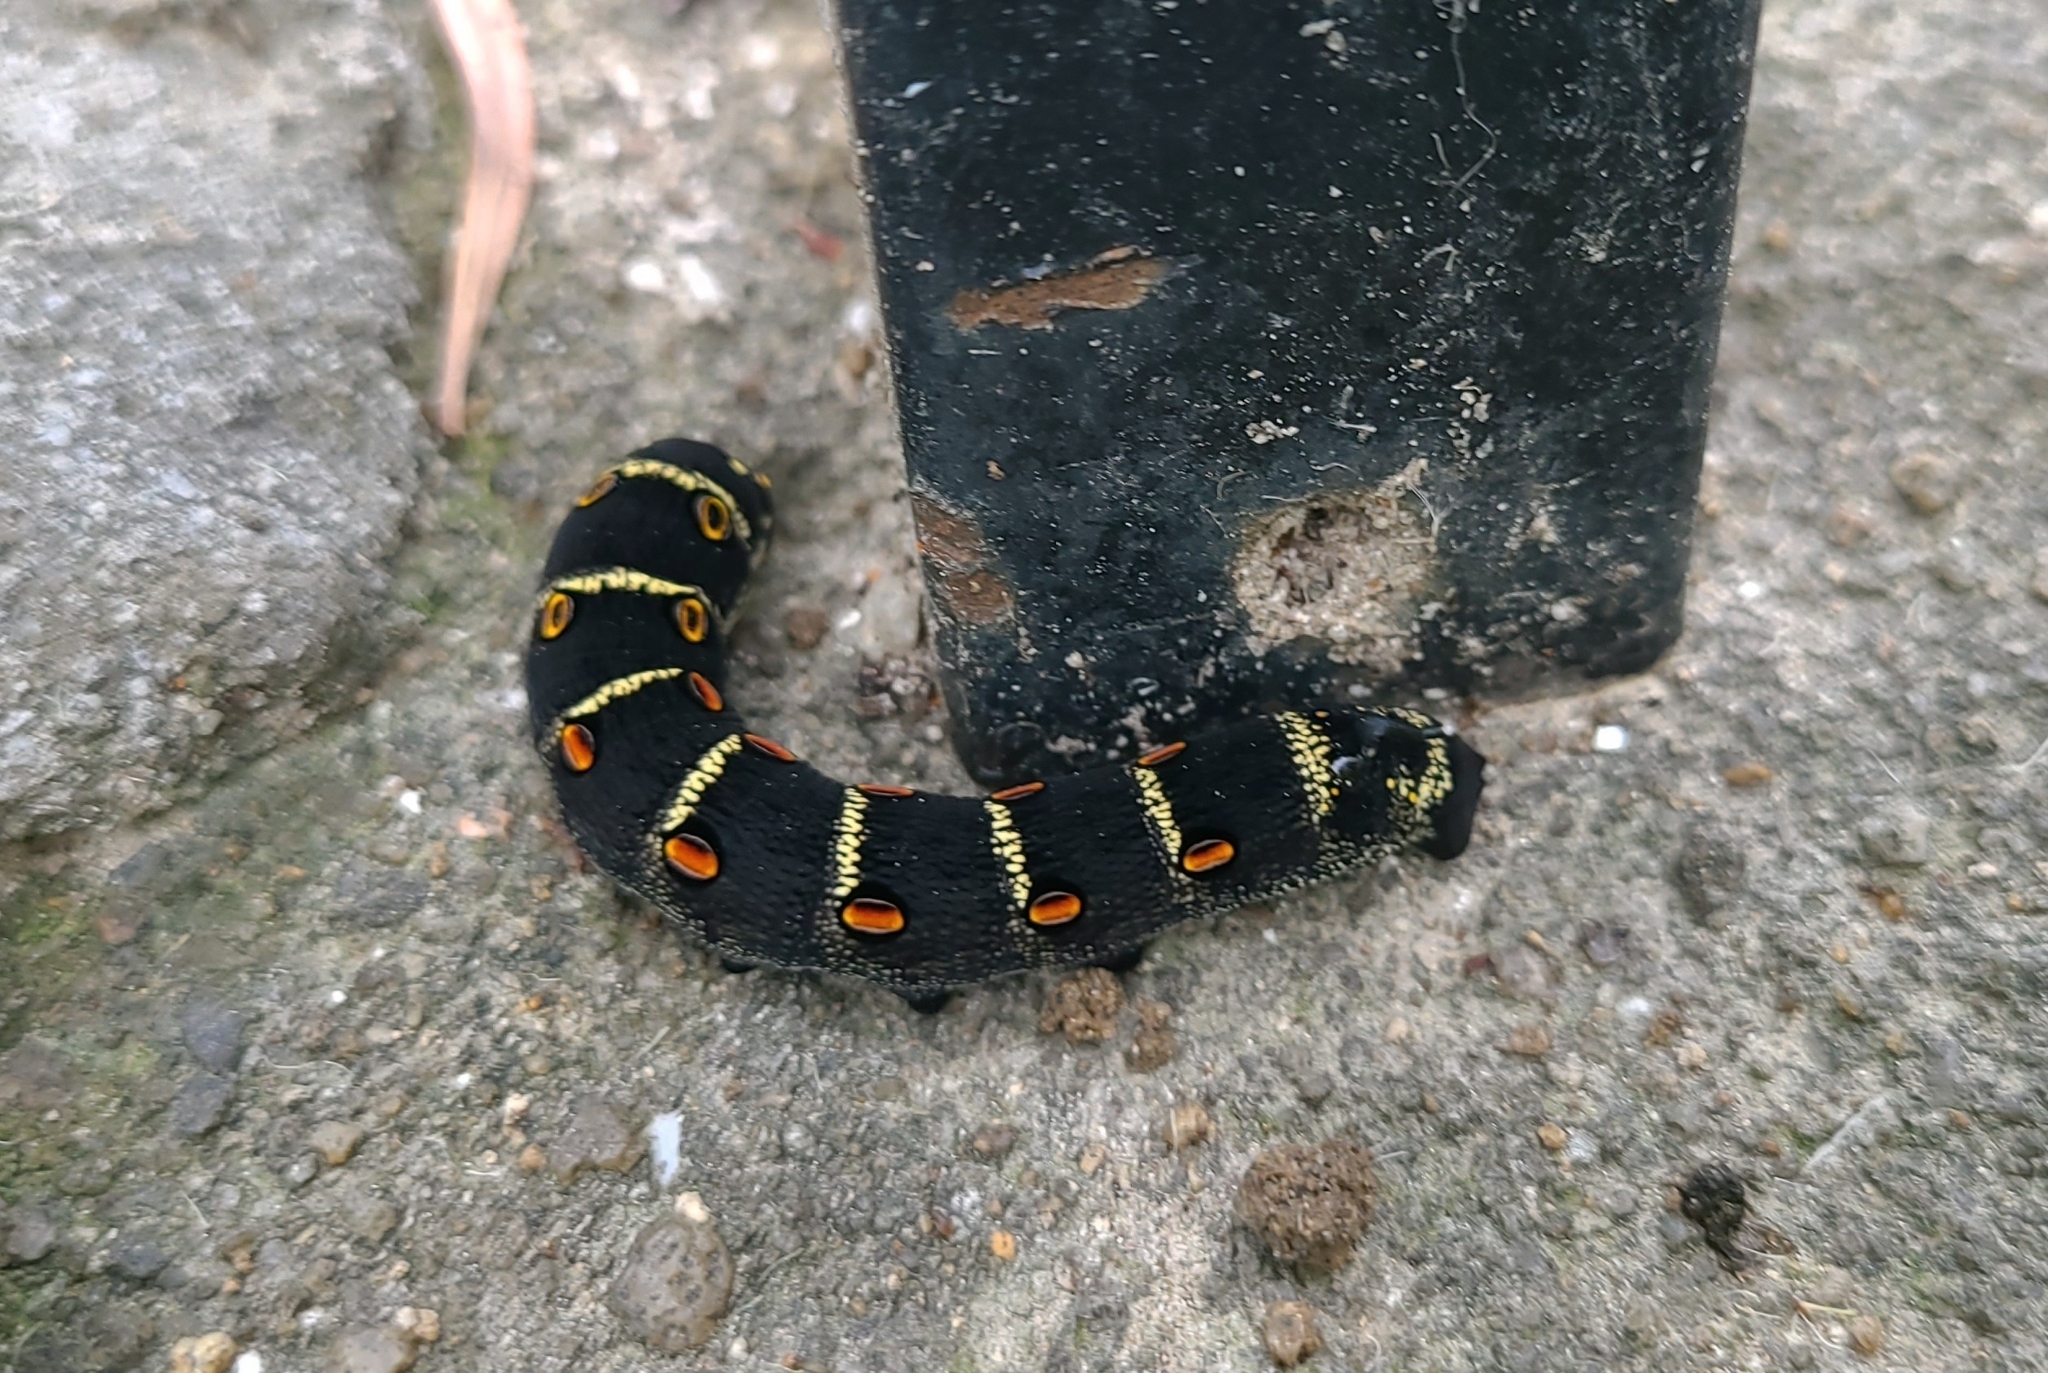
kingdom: Animalia
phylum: Arthropoda
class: Insecta
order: Lepidoptera
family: Sphingidae
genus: Theretra
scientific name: Theretra oldenlandiae
